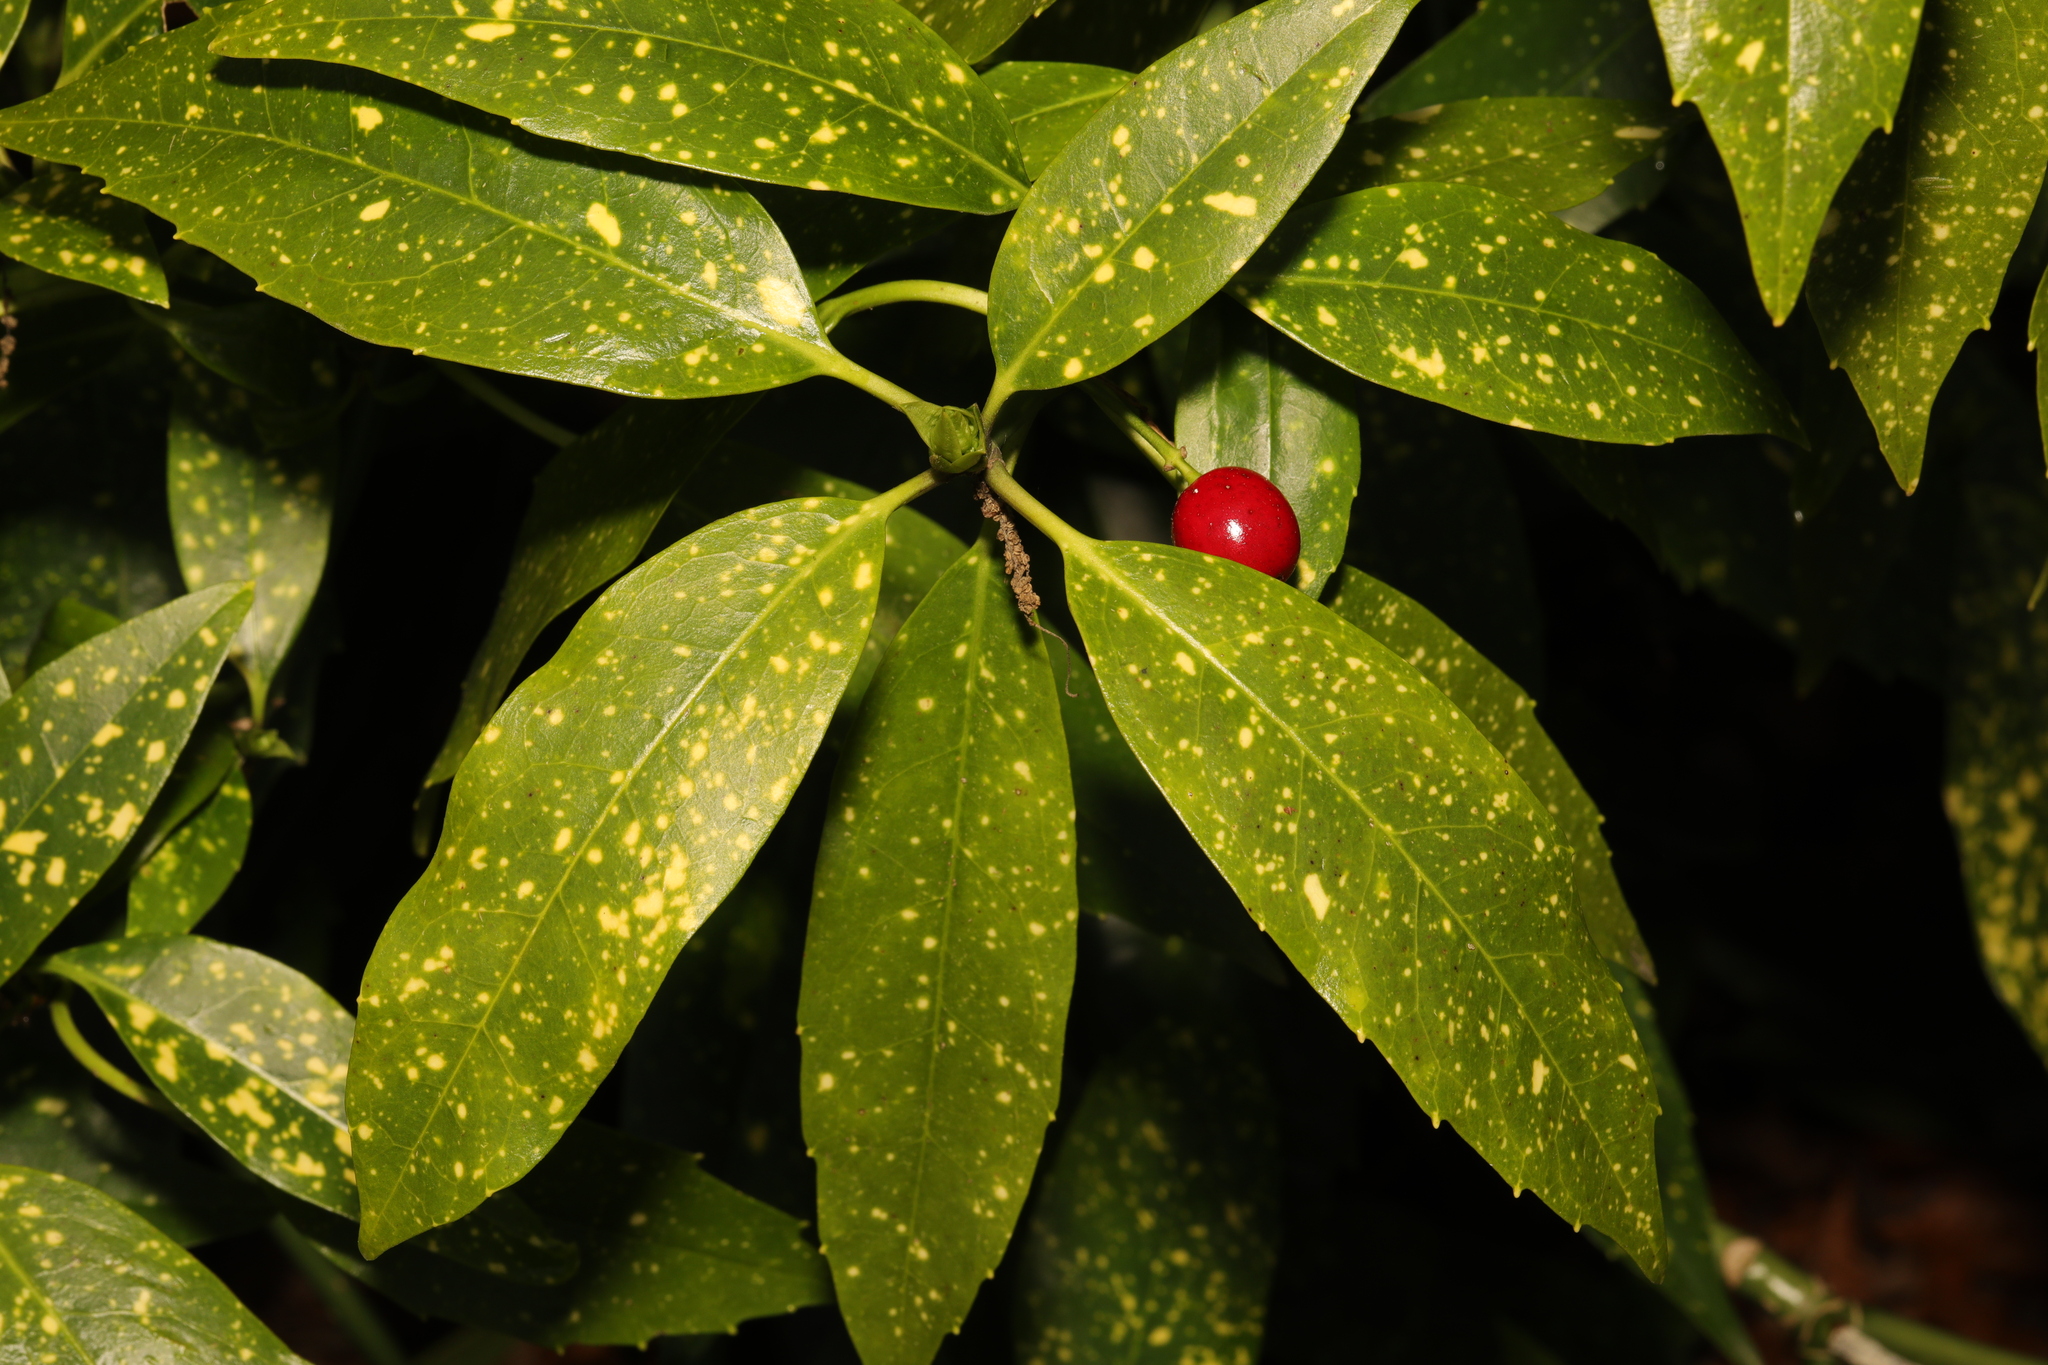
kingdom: Plantae
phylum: Tracheophyta
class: Magnoliopsida
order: Garryales
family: Garryaceae
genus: Aucuba
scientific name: Aucuba japonica
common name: Spotted-laurel
